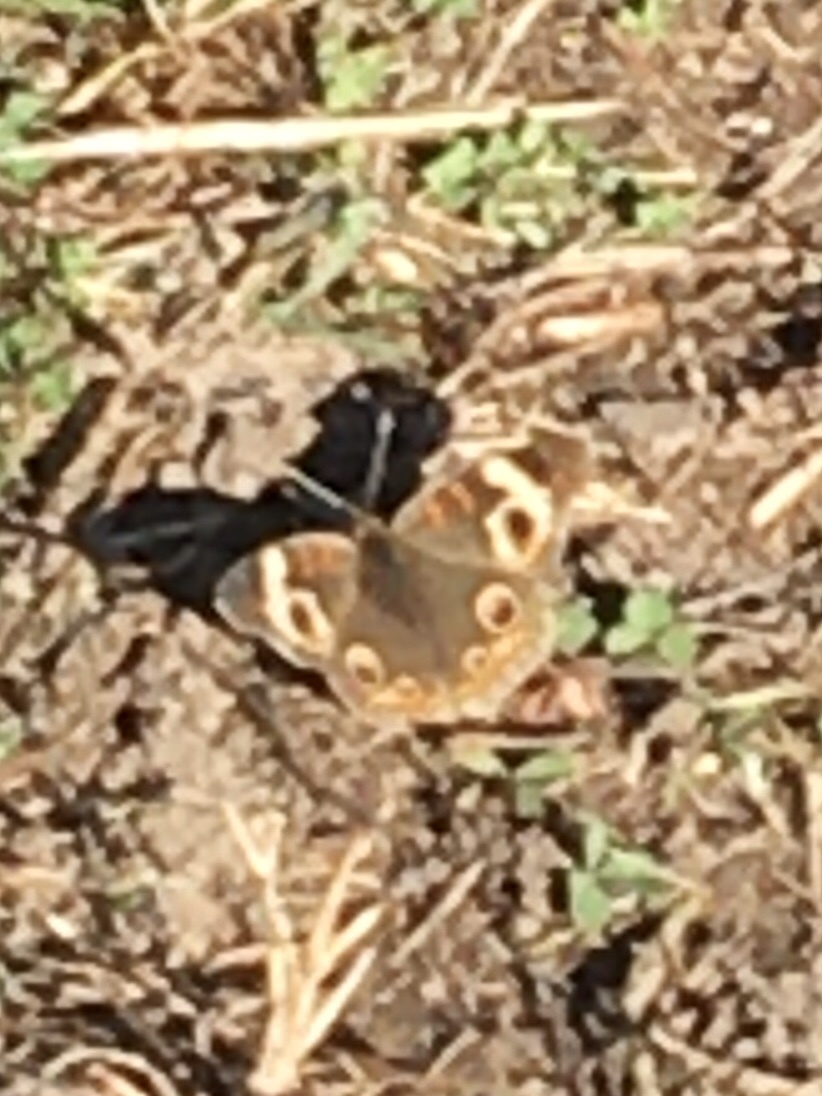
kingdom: Animalia
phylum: Arthropoda
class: Insecta
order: Lepidoptera
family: Nymphalidae
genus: Junonia
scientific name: Junonia coenia
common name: Common buckeye
